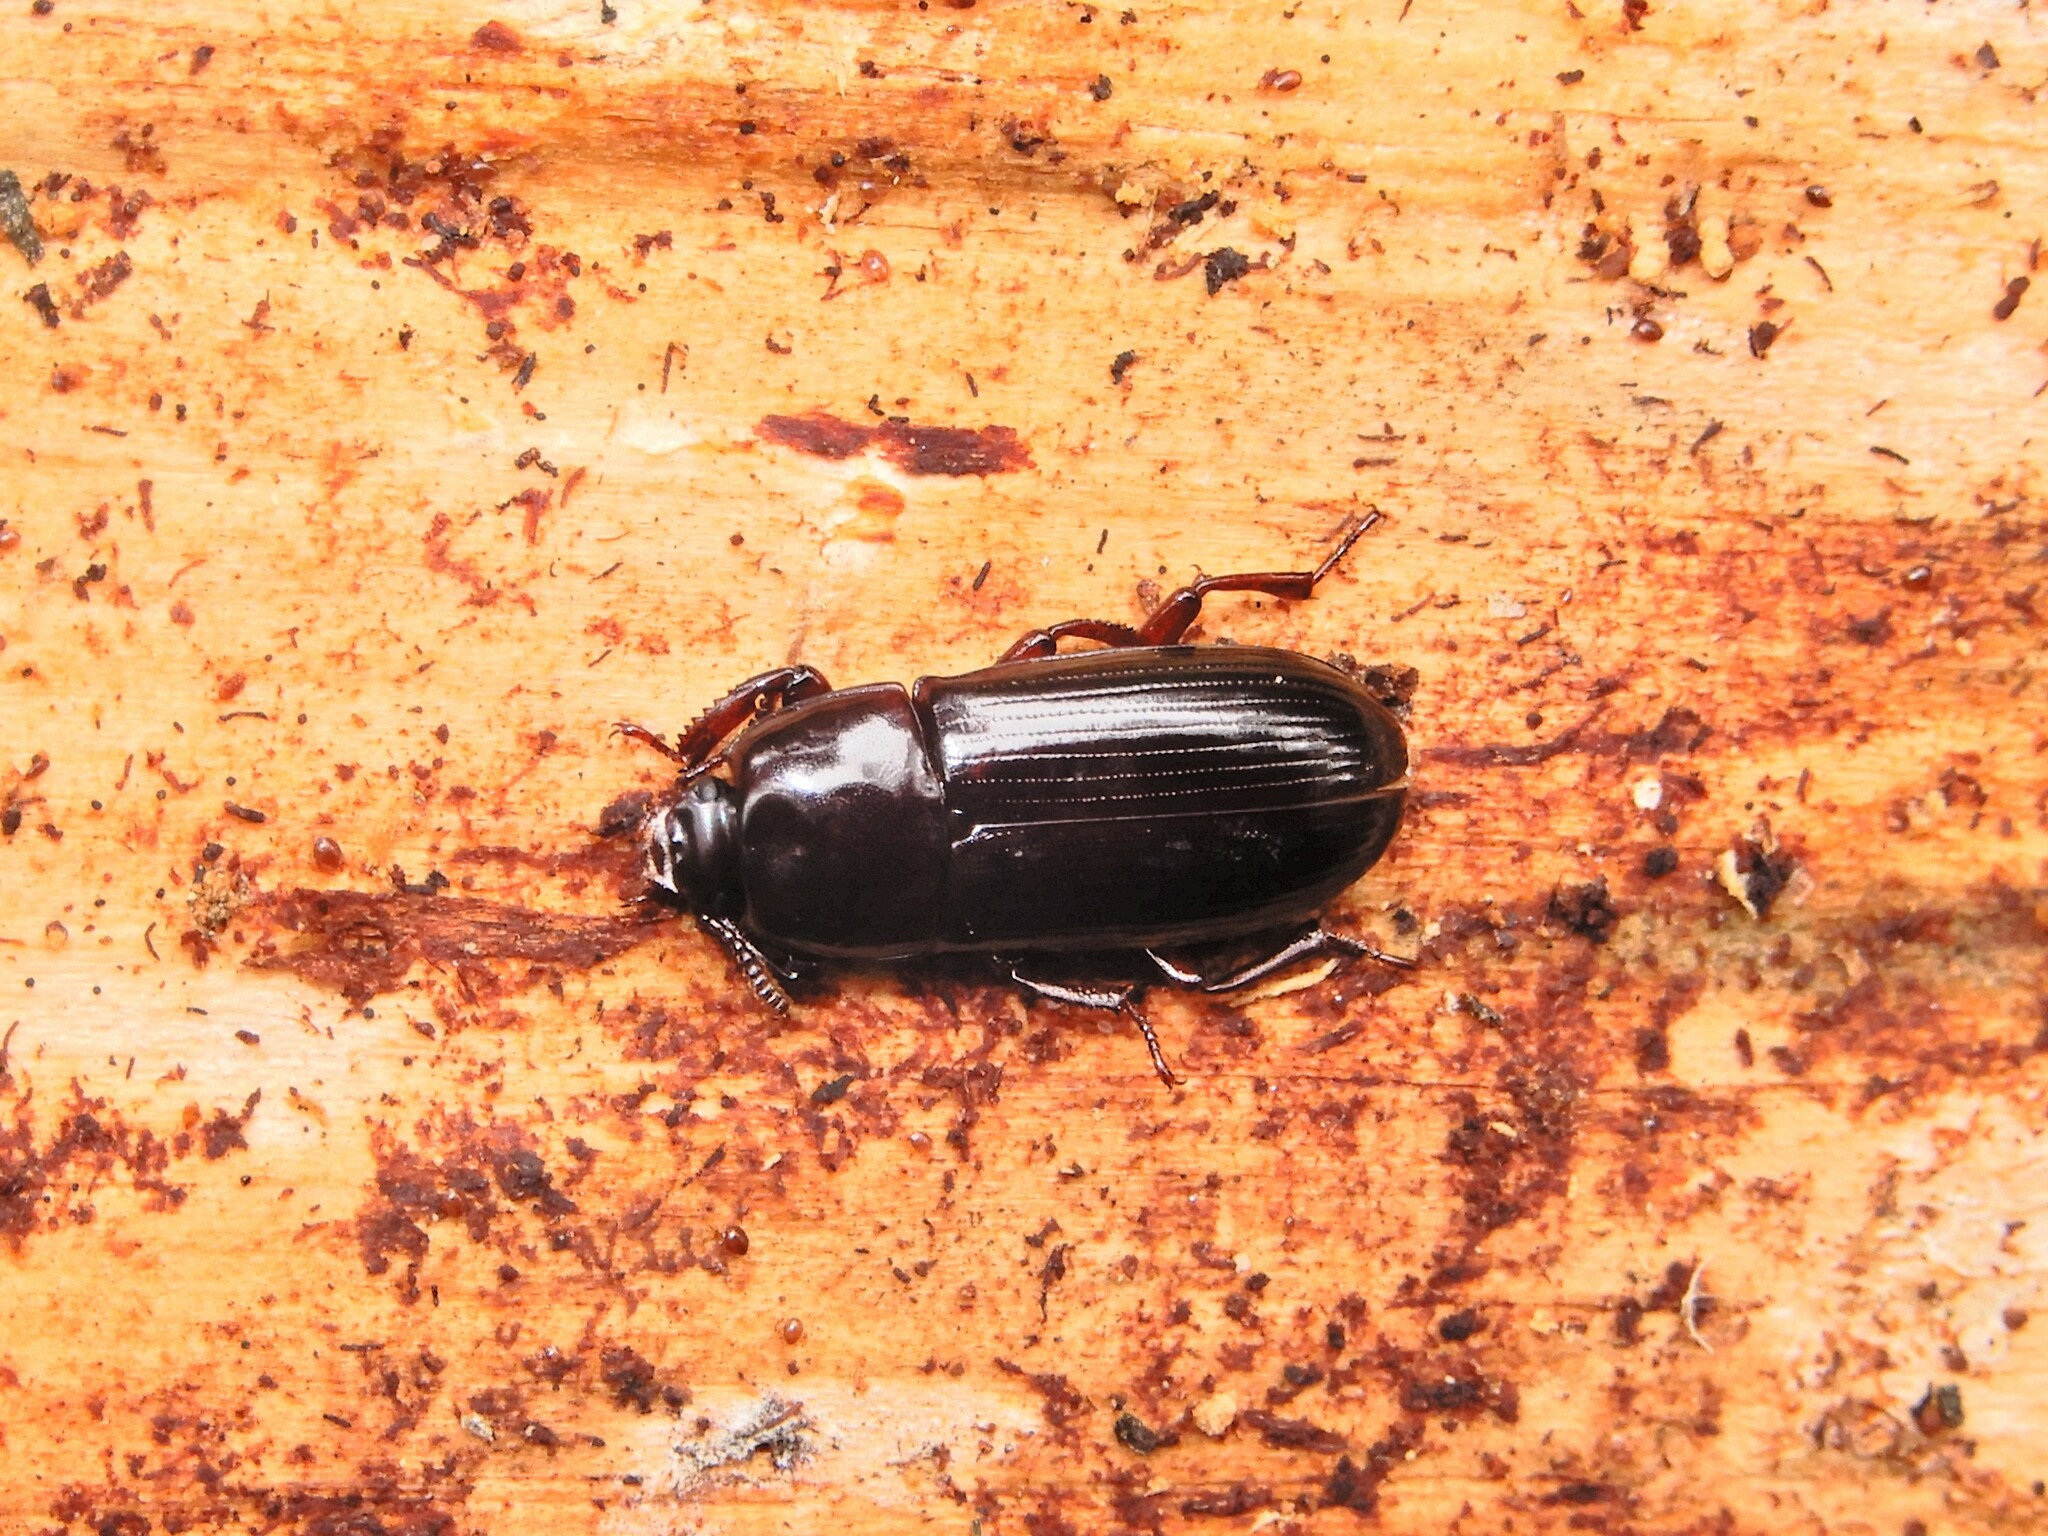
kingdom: Animalia
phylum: Arthropoda
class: Insecta
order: Coleoptera
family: Tenebrionidae
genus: Uloma
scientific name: Uloma tenebrionoides
